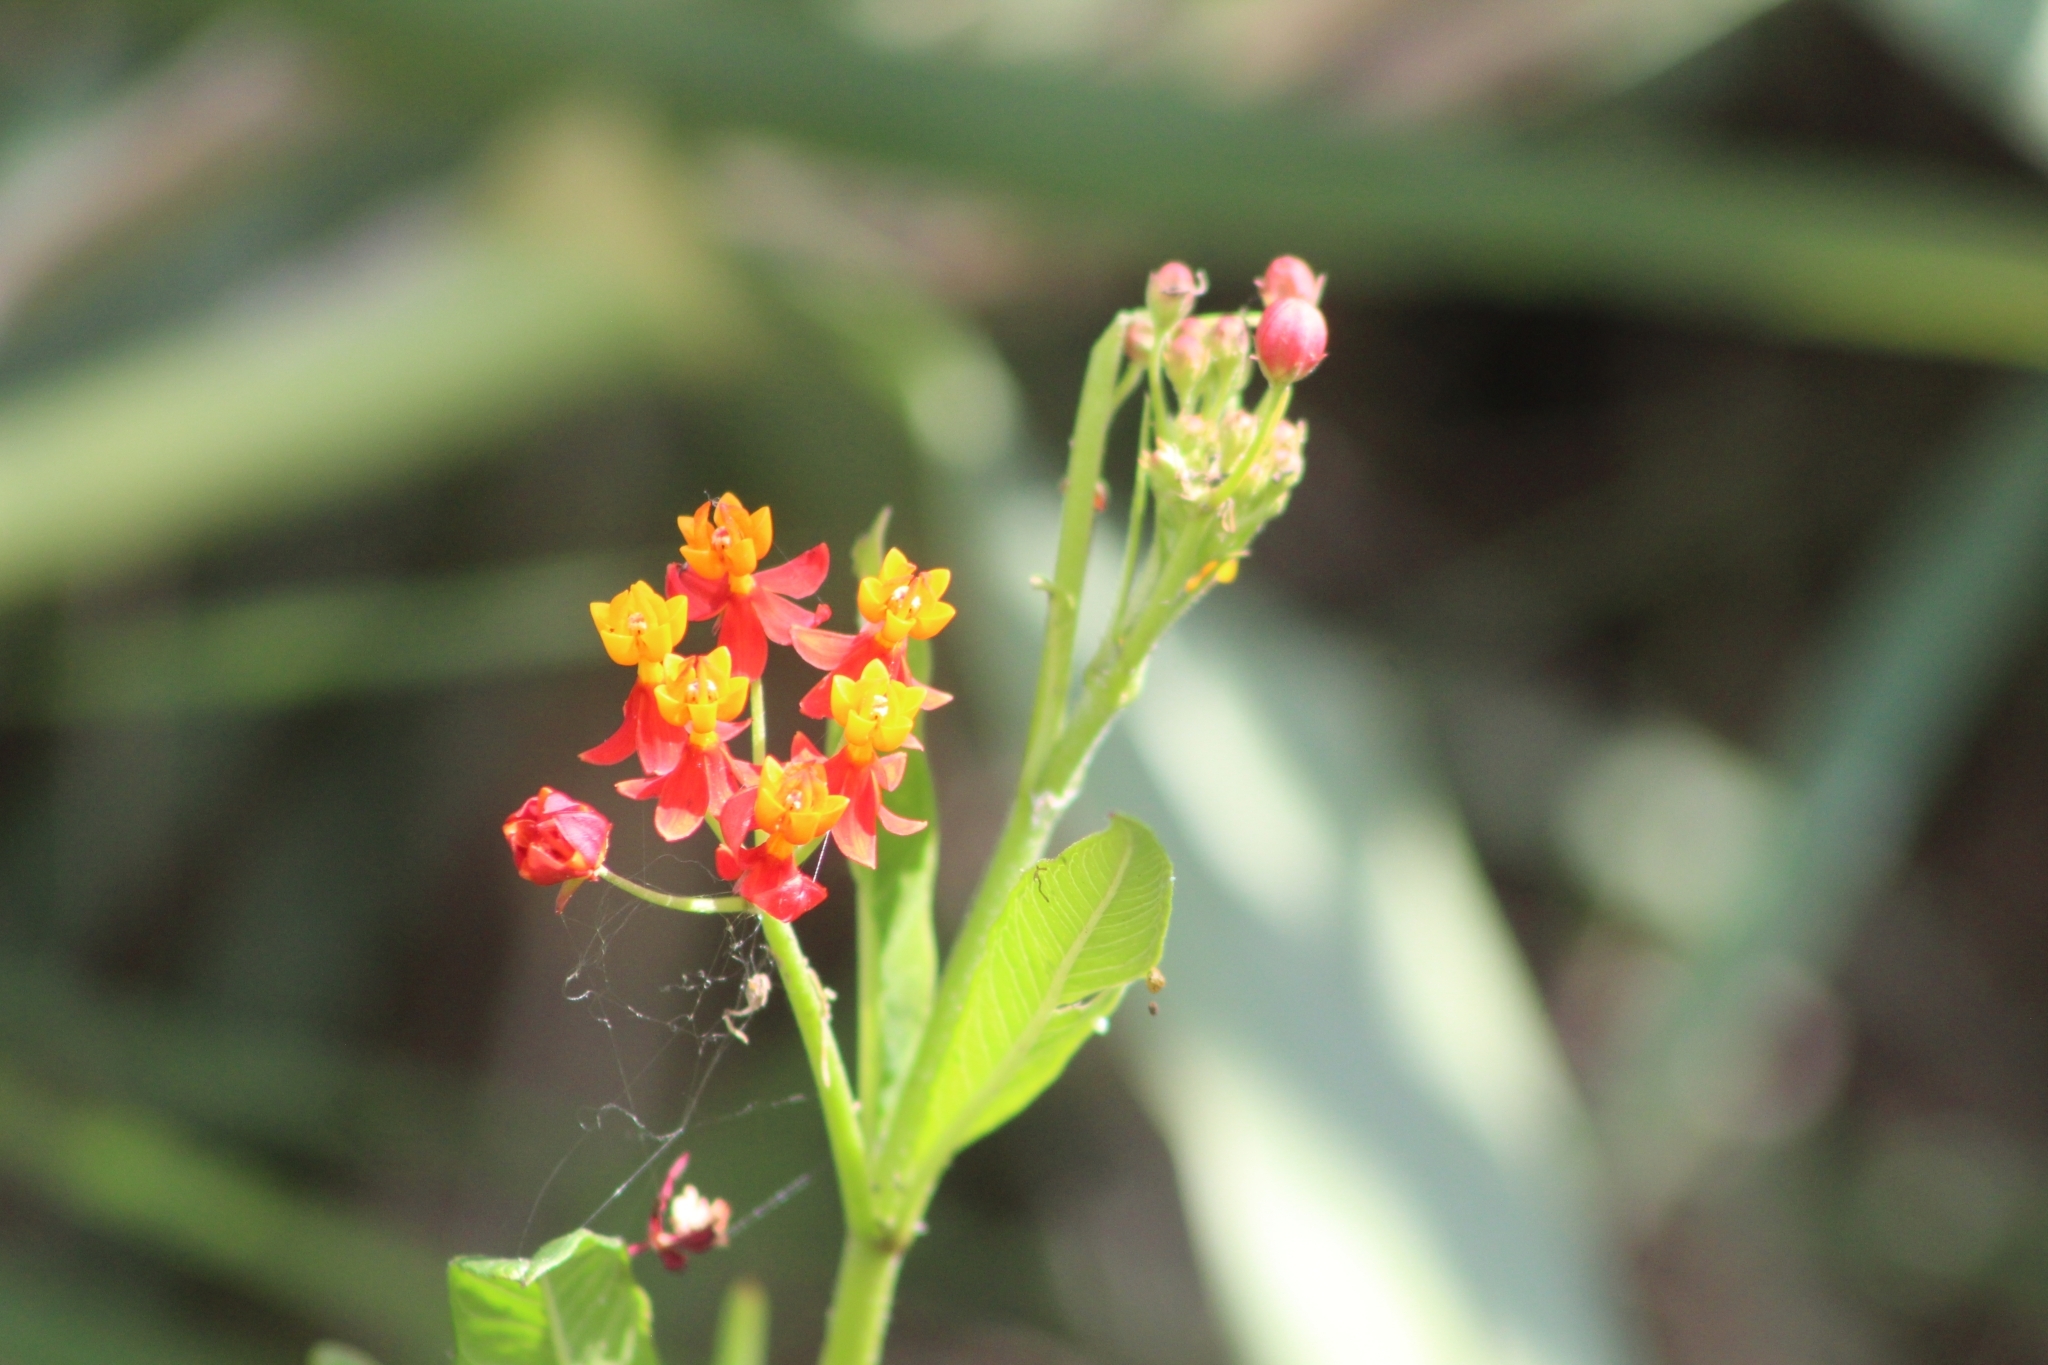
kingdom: Plantae
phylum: Tracheophyta
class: Magnoliopsida
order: Gentianales
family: Apocynaceae
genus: Asclepias
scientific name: Asclepias curassavica
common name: Bloodflower
